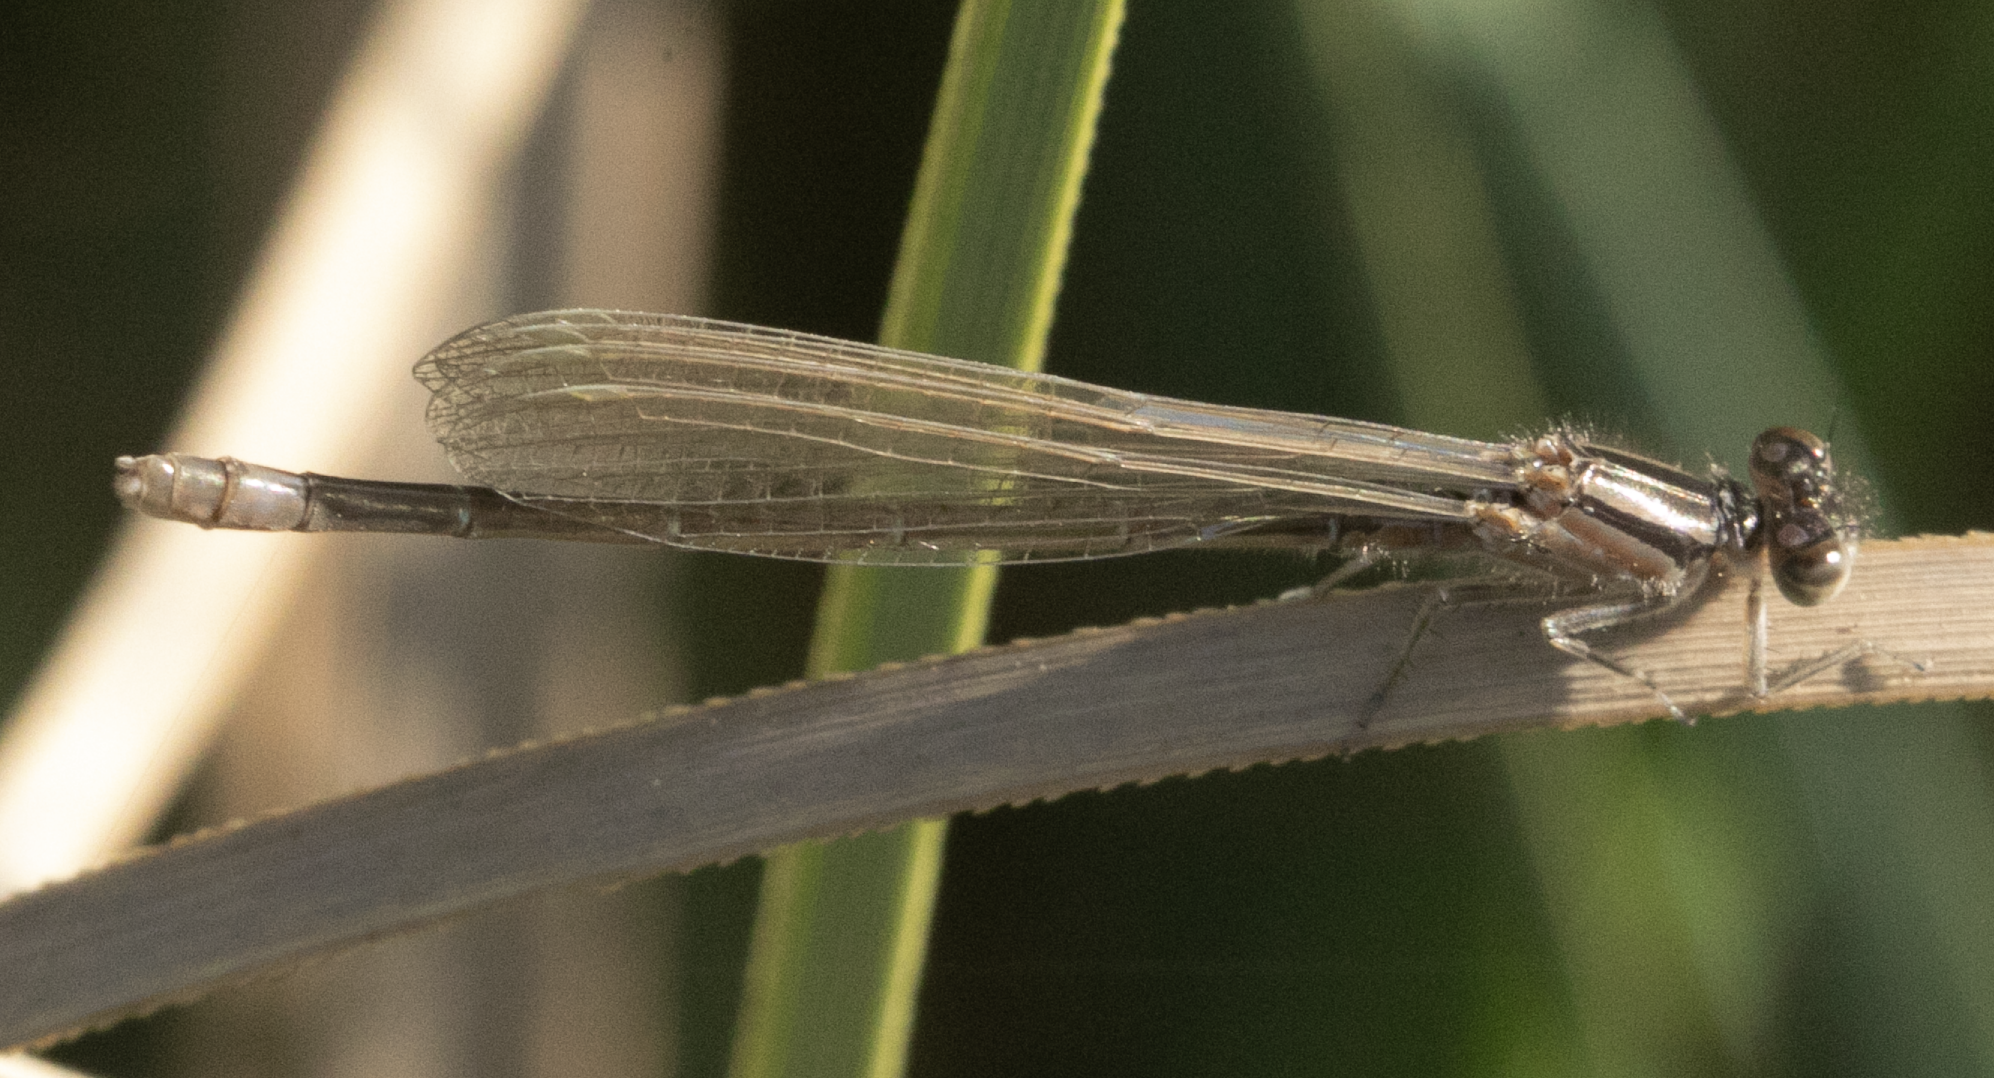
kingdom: Animalia
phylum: Arthropoda
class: Insecta
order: Odonata
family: Coenagrionidae
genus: Ischnura
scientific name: Ischnura elegans
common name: Blue-tailed damselfly
